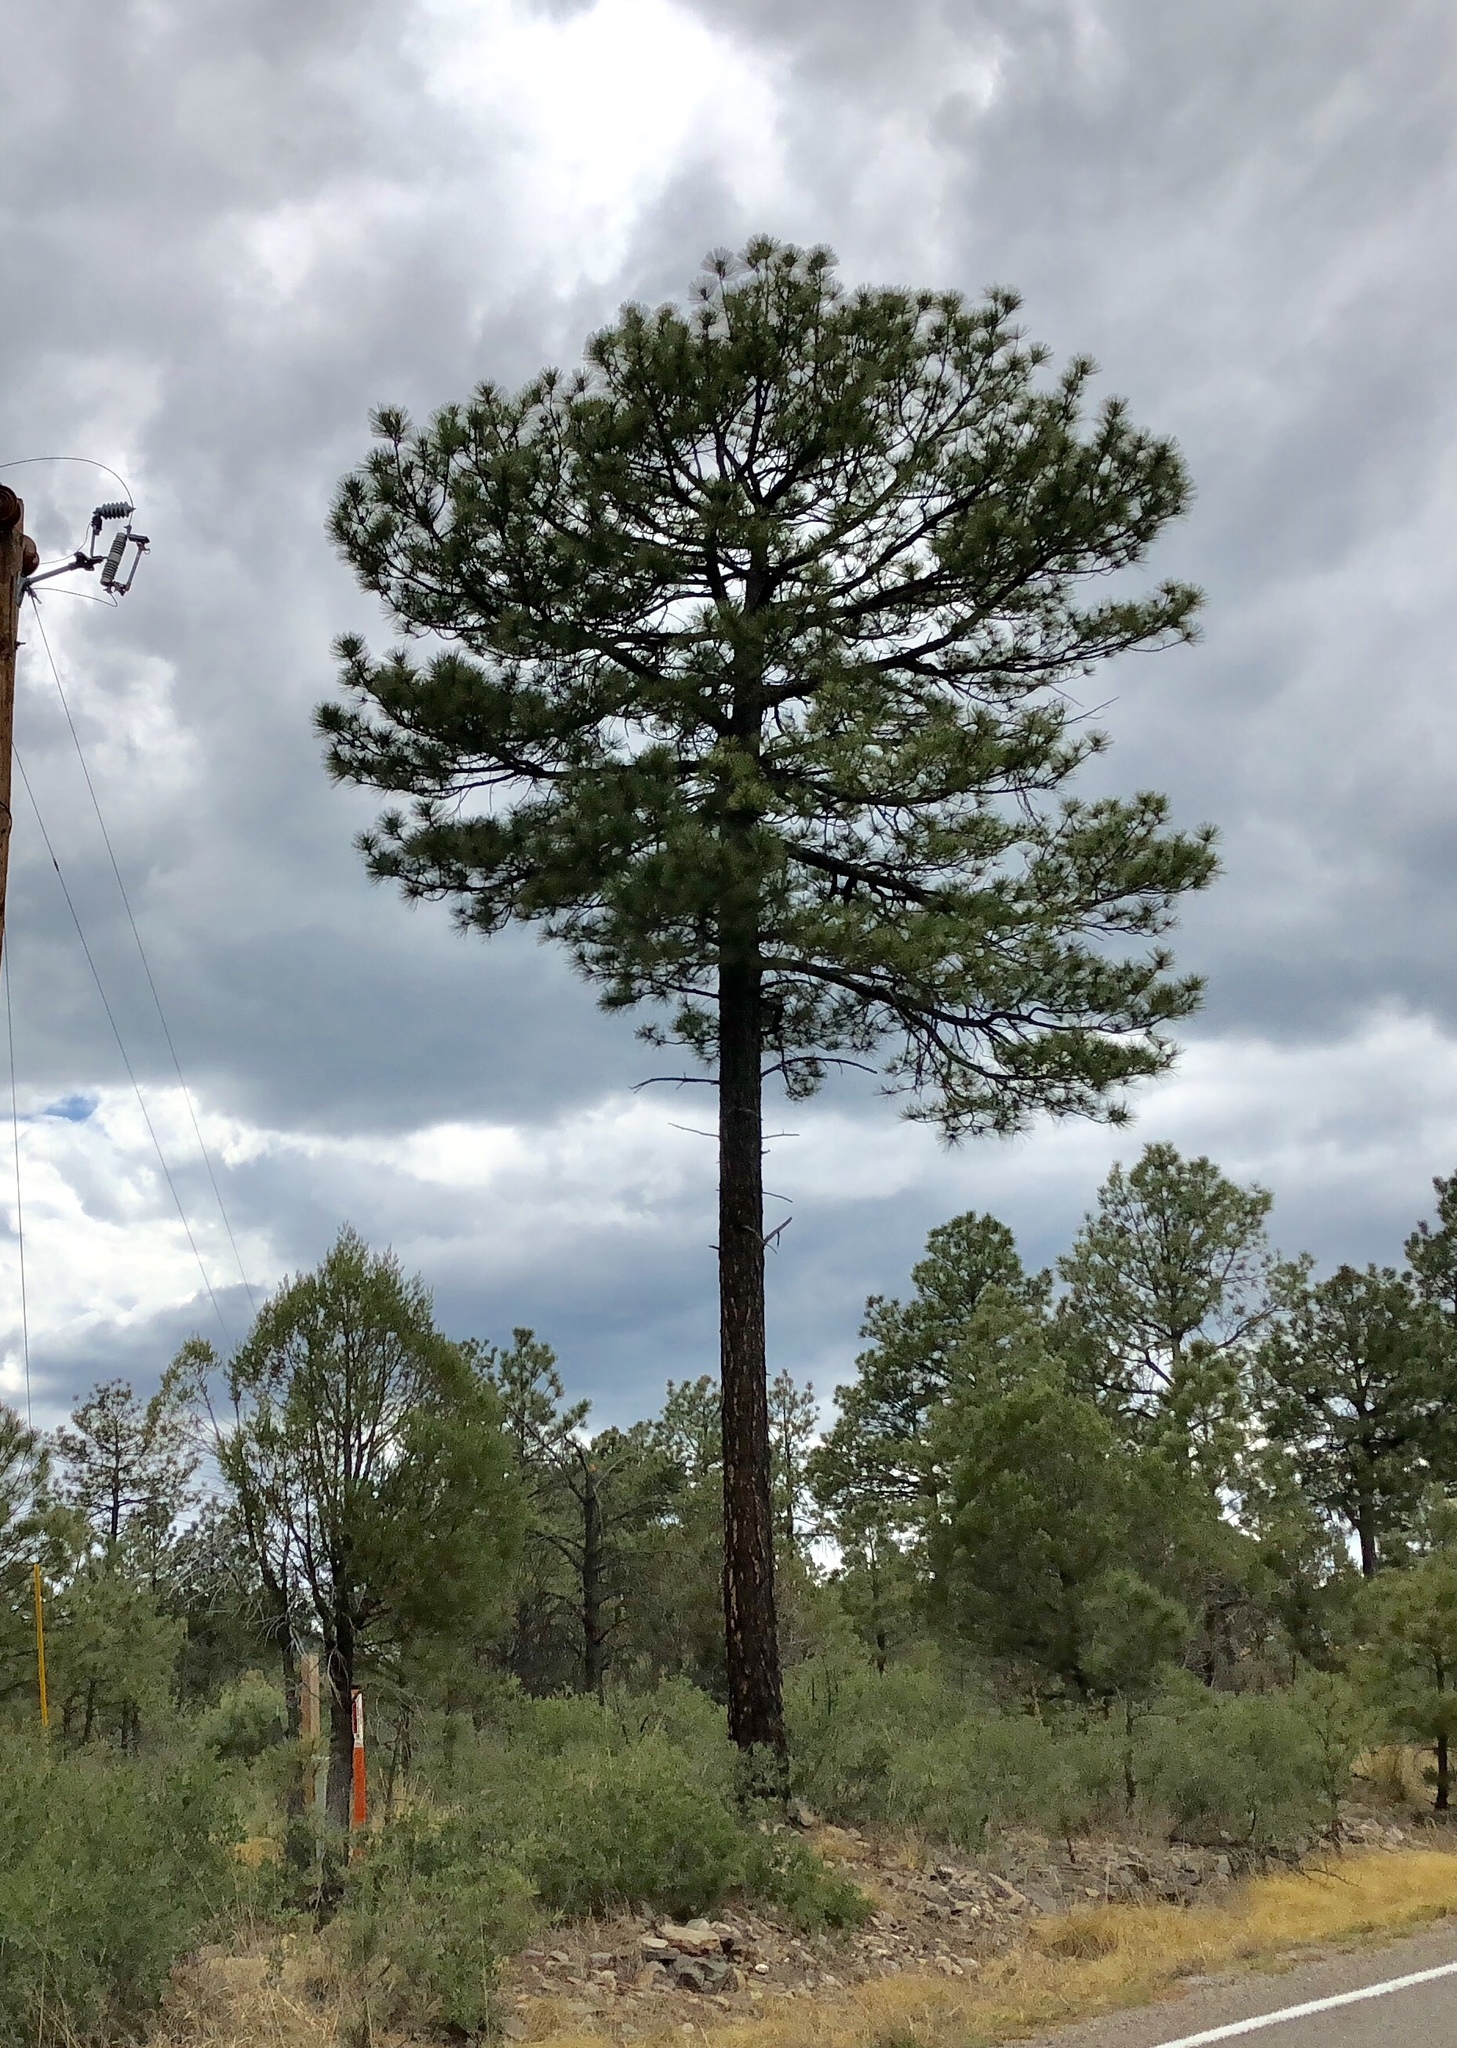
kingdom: Plantae
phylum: Tracheophyta
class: Pinopsida
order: Pinales
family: Pinaceae
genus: Pinus
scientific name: Pinus ponderosa
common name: Western yellow-pine
